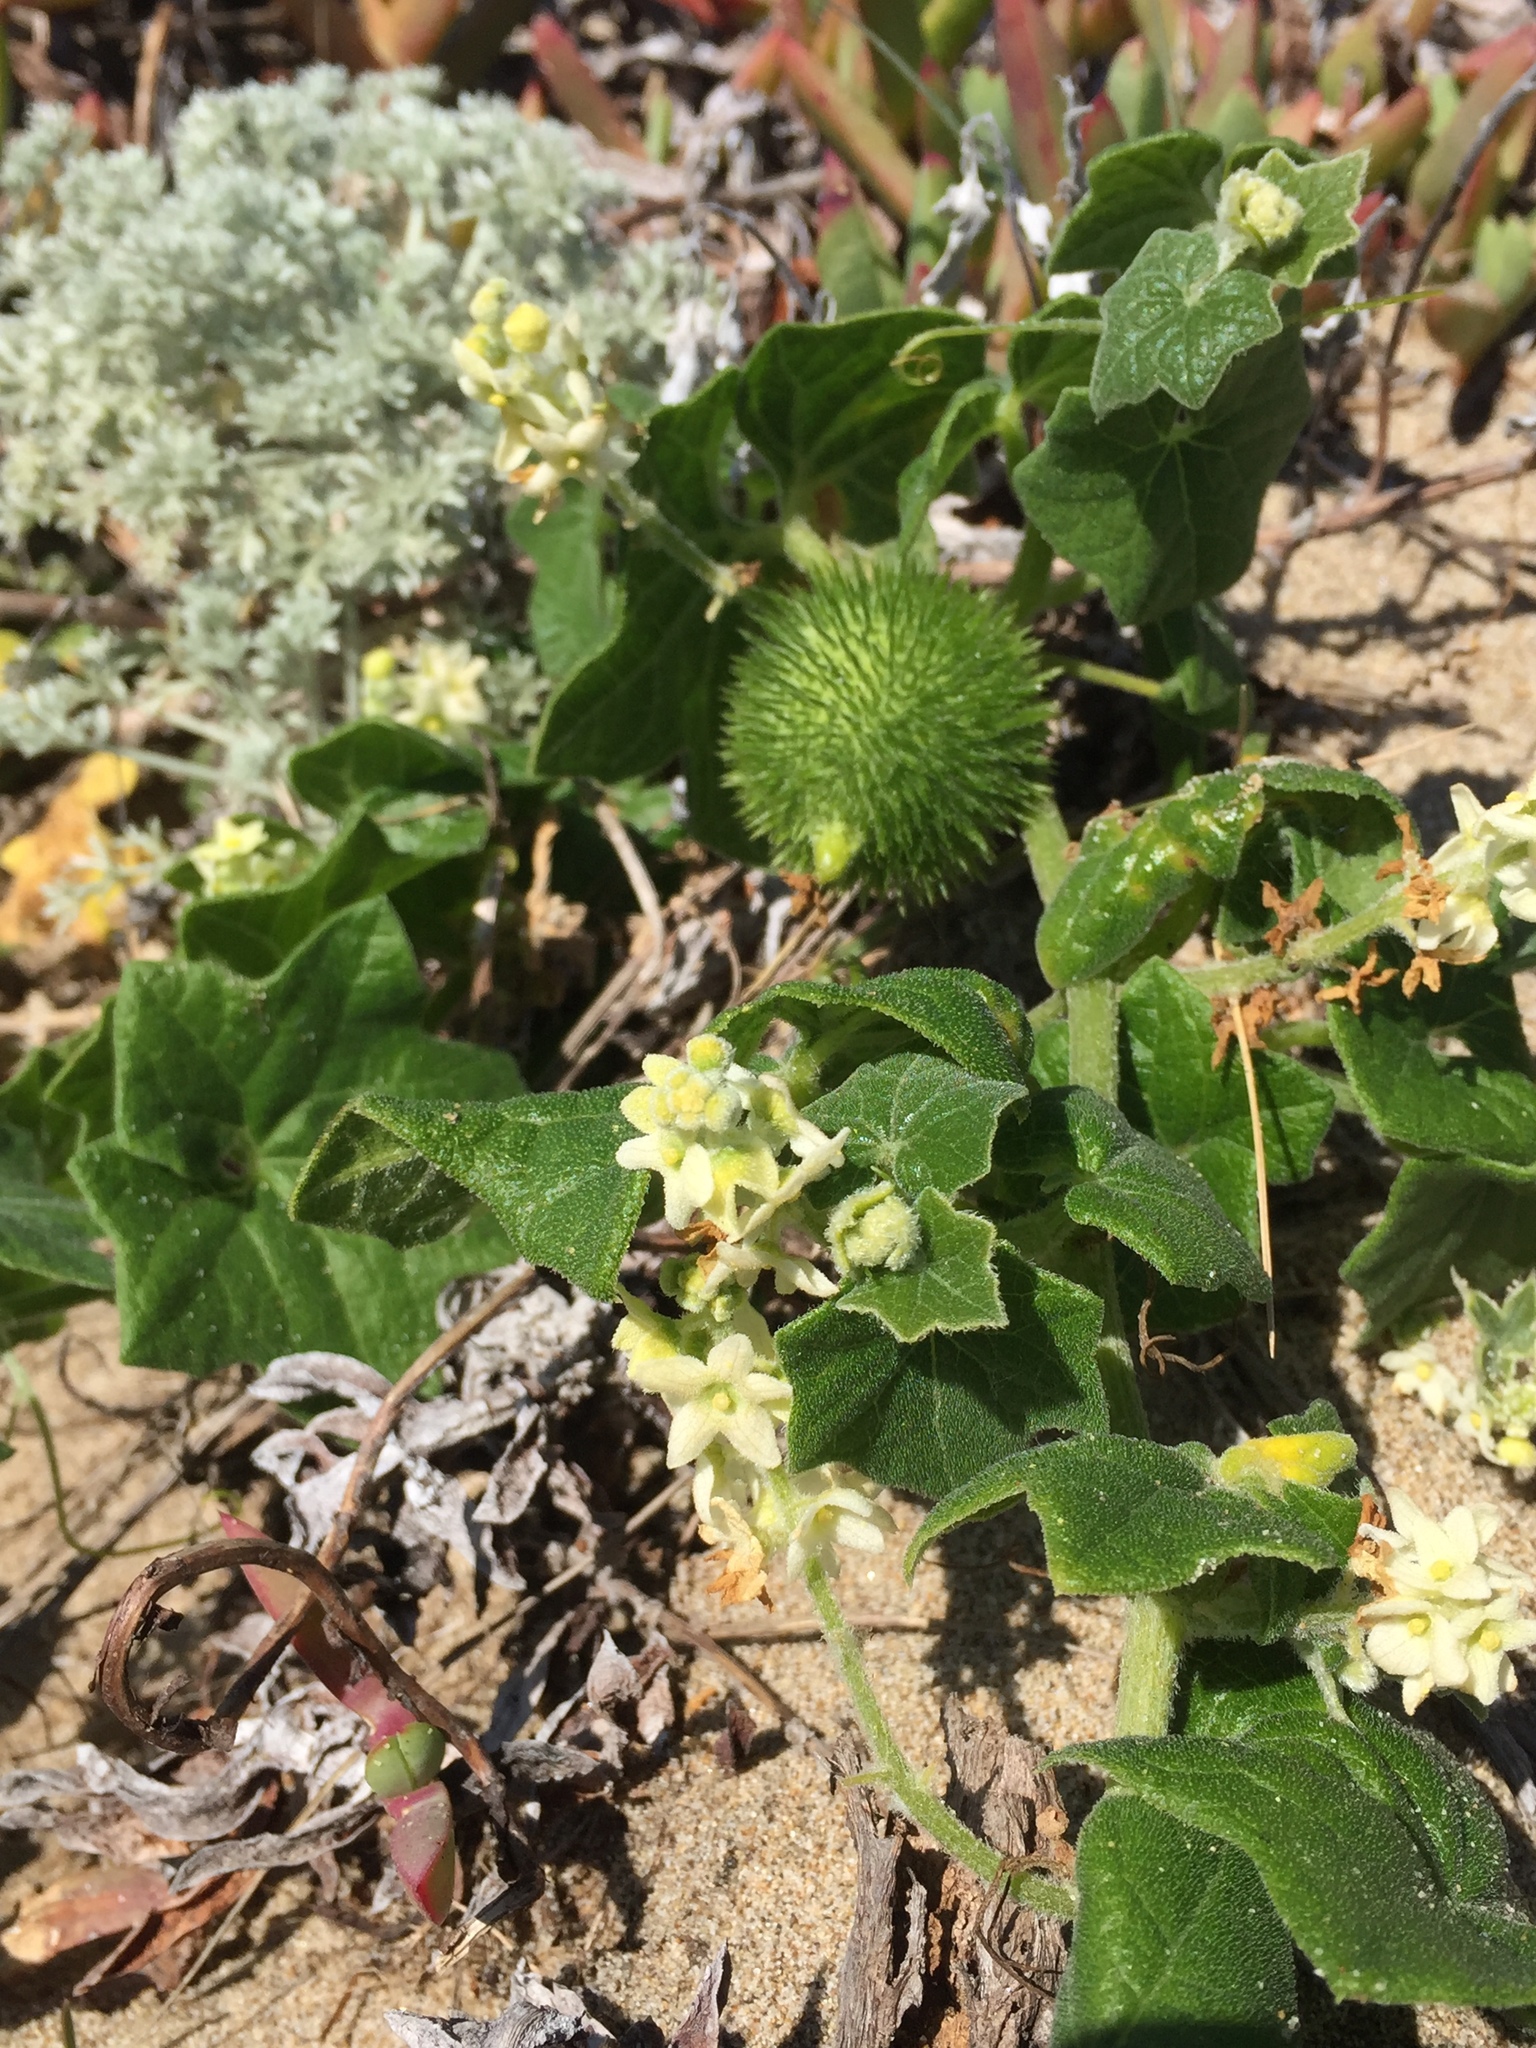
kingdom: Plantae
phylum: Tracheophyta
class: Magnoliopsida
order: Cucurbitales
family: Cucurbitaceae
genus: Marah
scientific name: Marah fabacea
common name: California manroot
